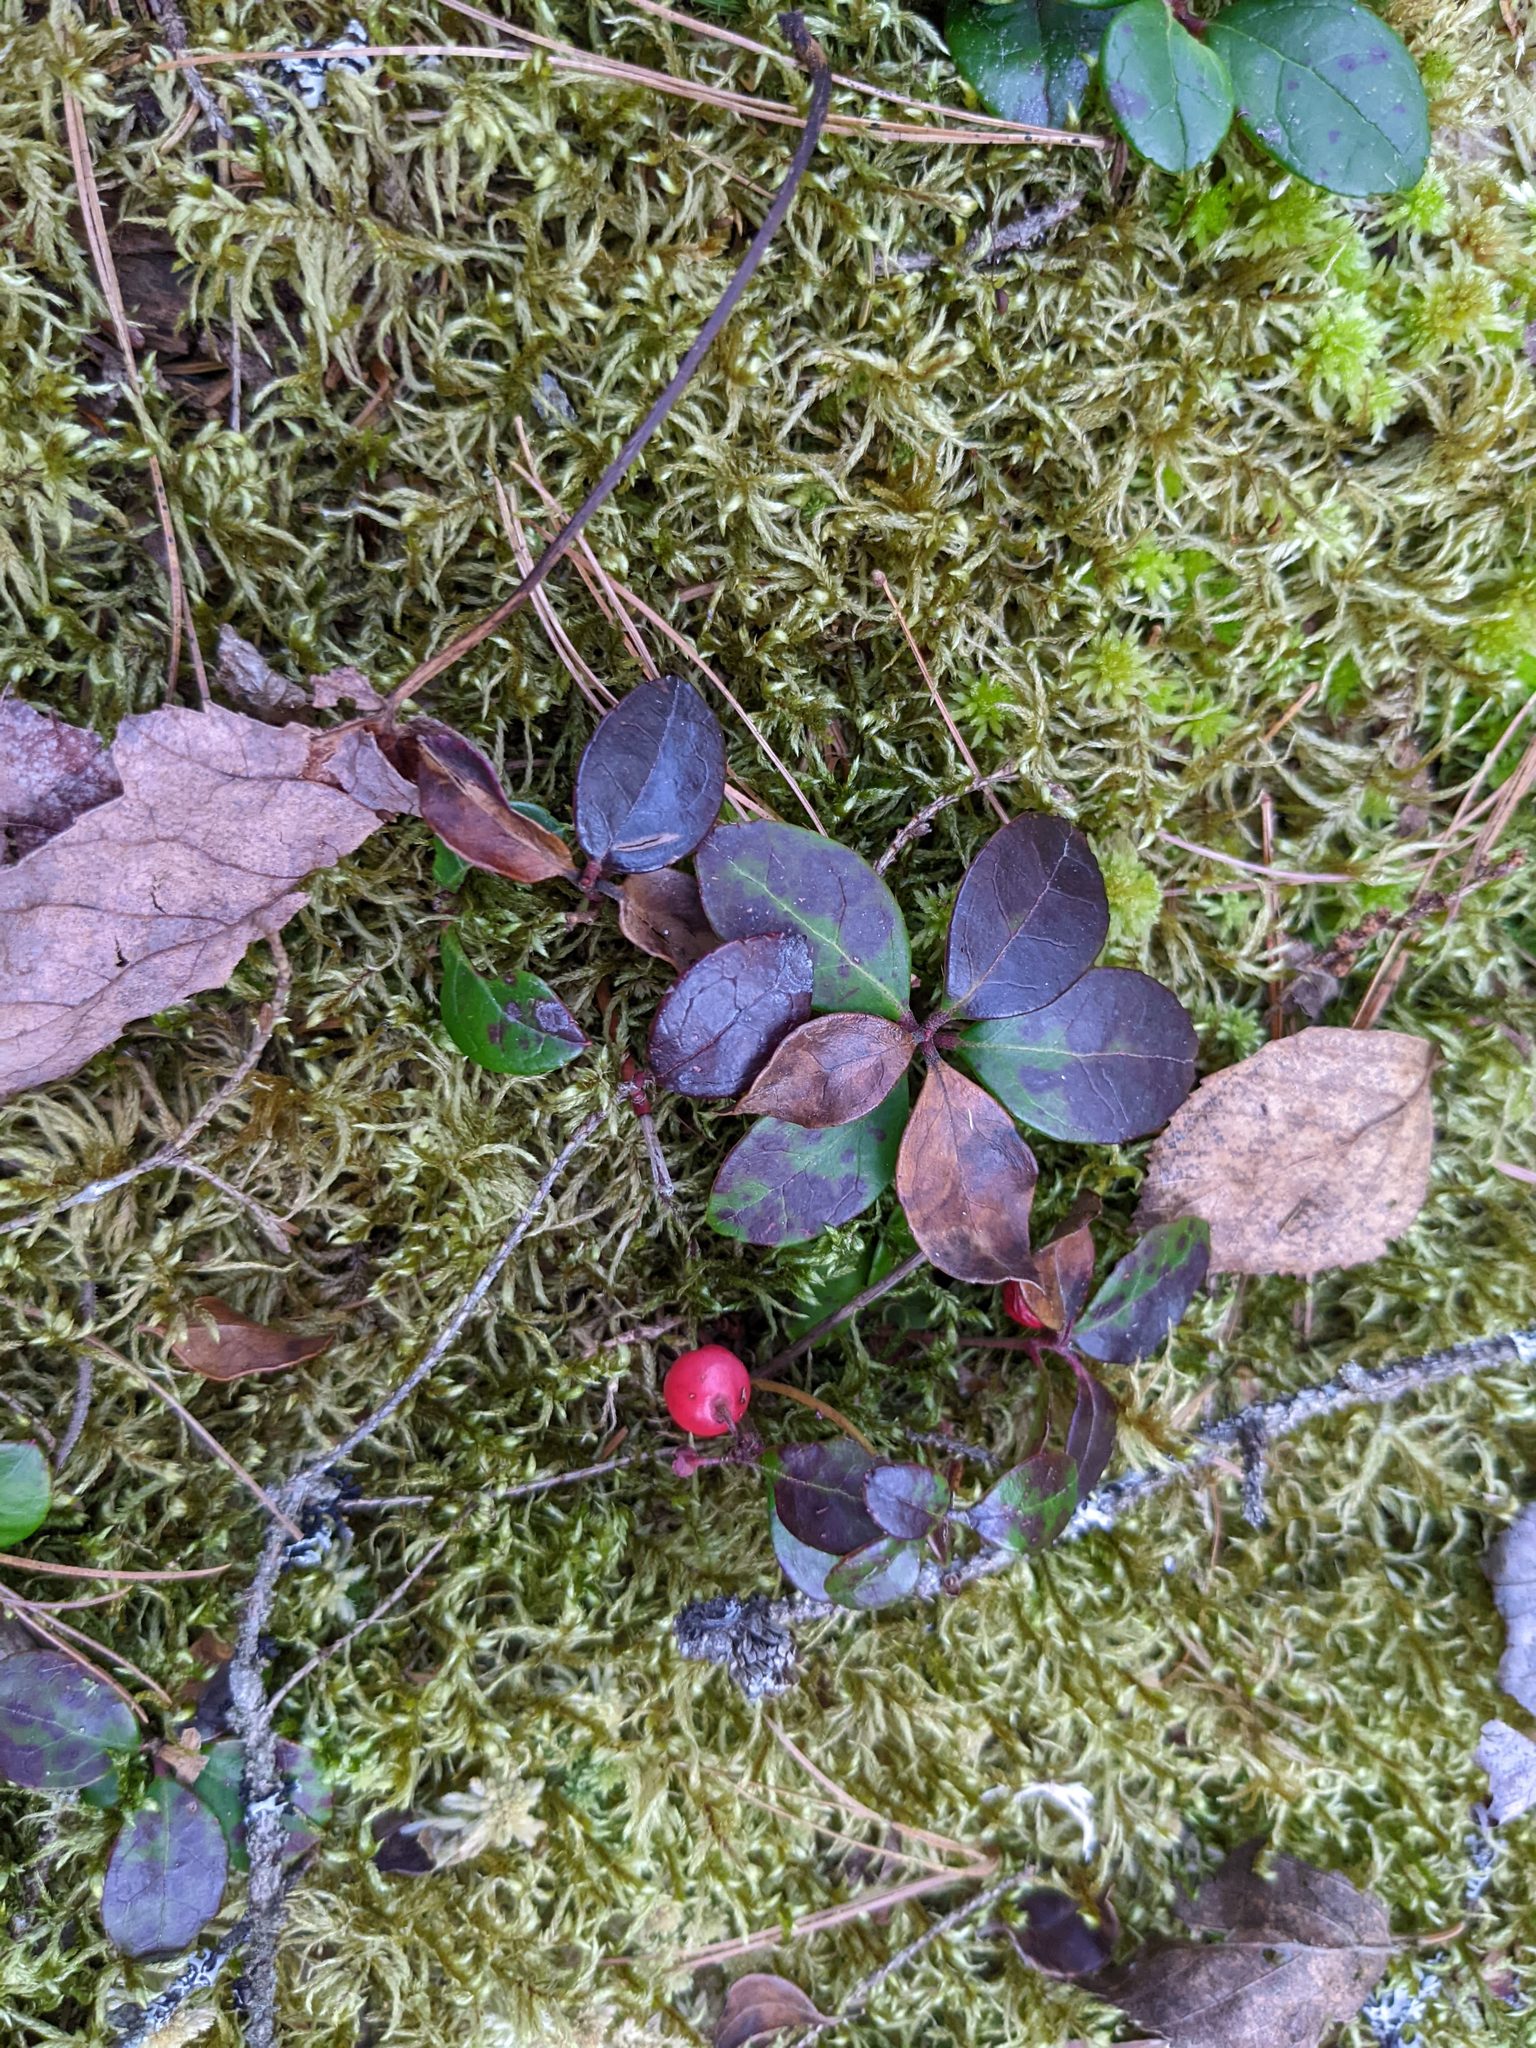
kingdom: Plantae
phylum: Tracheophyta
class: Magnoliopsida
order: Ericales
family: Ericaceae
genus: Gaultheria
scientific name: Gaultheria procumbens
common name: Checkerberry
